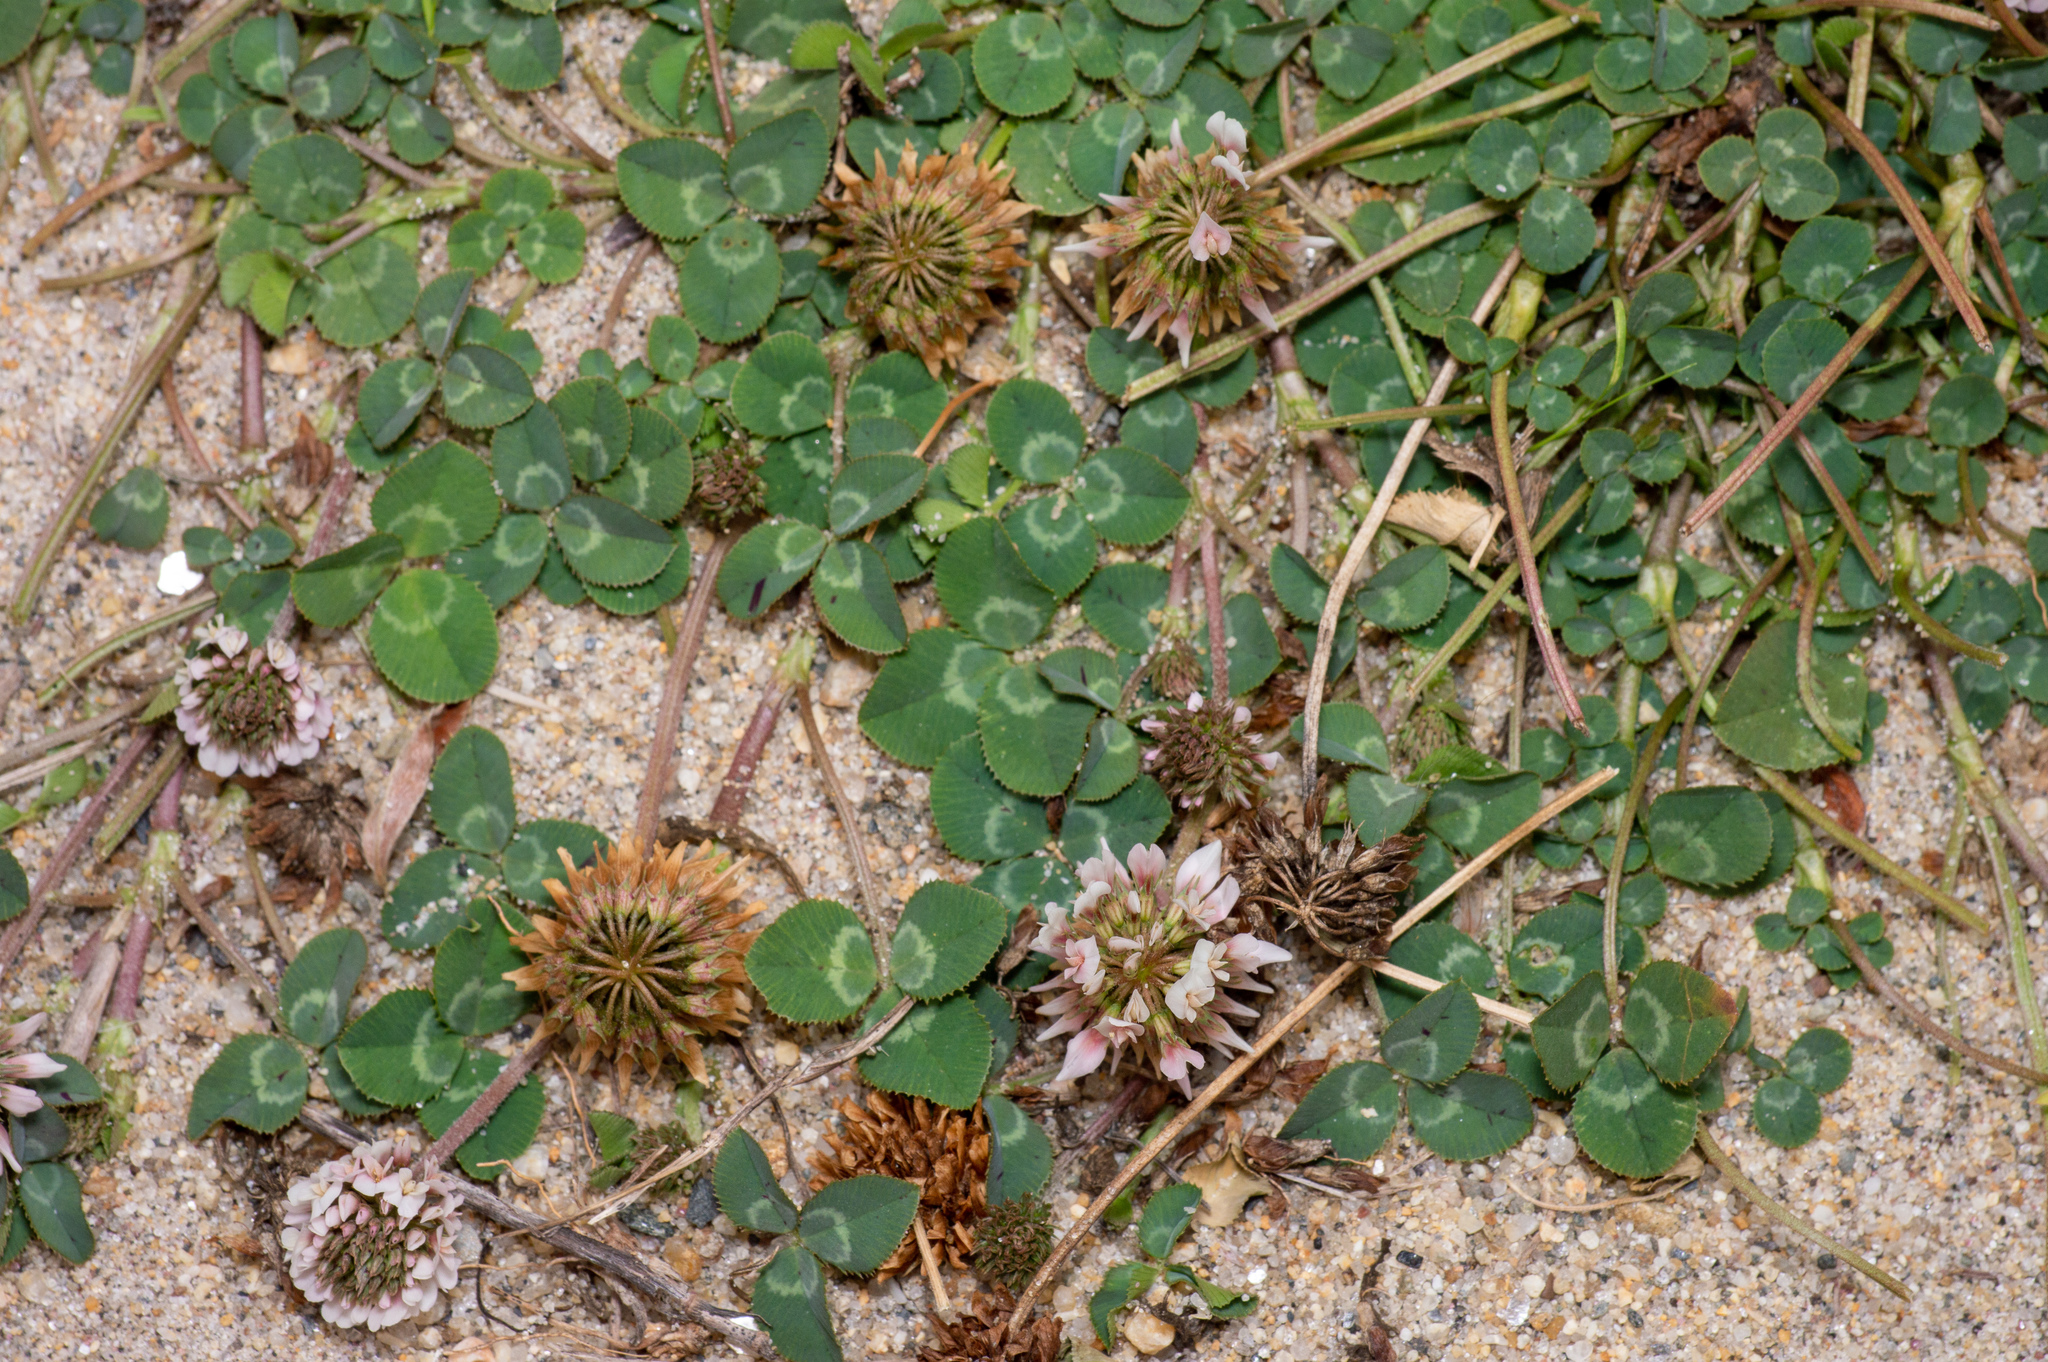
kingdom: Plantae
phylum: Tracheophyta
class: Magnoliopsida
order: Fabales
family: Fabaceae
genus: Trifolium
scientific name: Trifolium repens
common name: White clover
